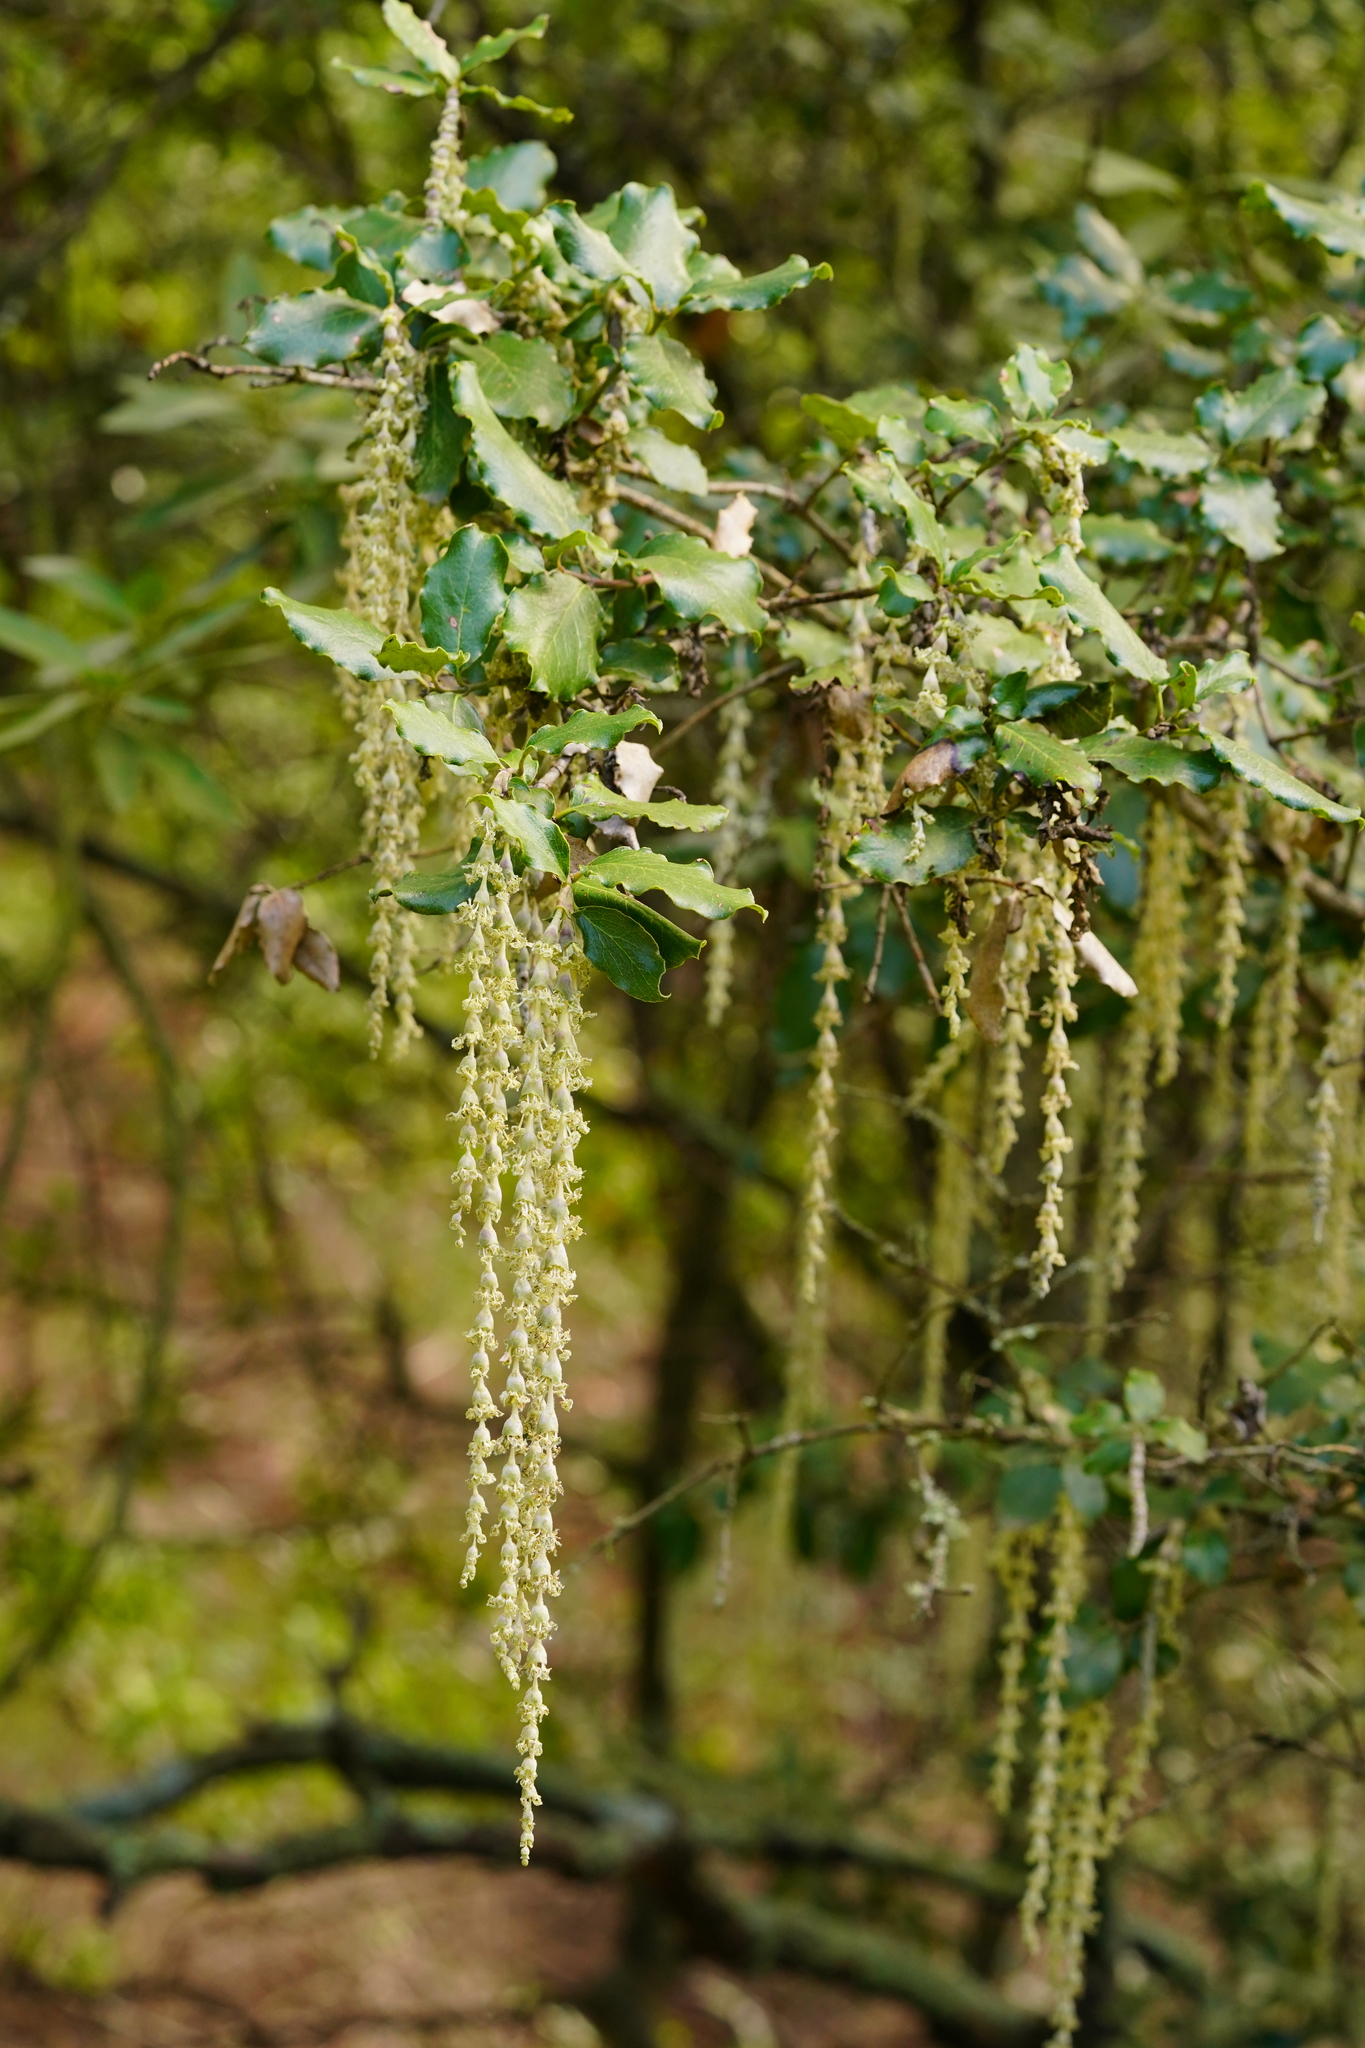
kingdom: Plantae
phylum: Tracheophyta
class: Magnoliopsida
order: Garryales
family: Garryaceae
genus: Garrya
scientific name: Garrya elliptica
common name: Silk-tassel
